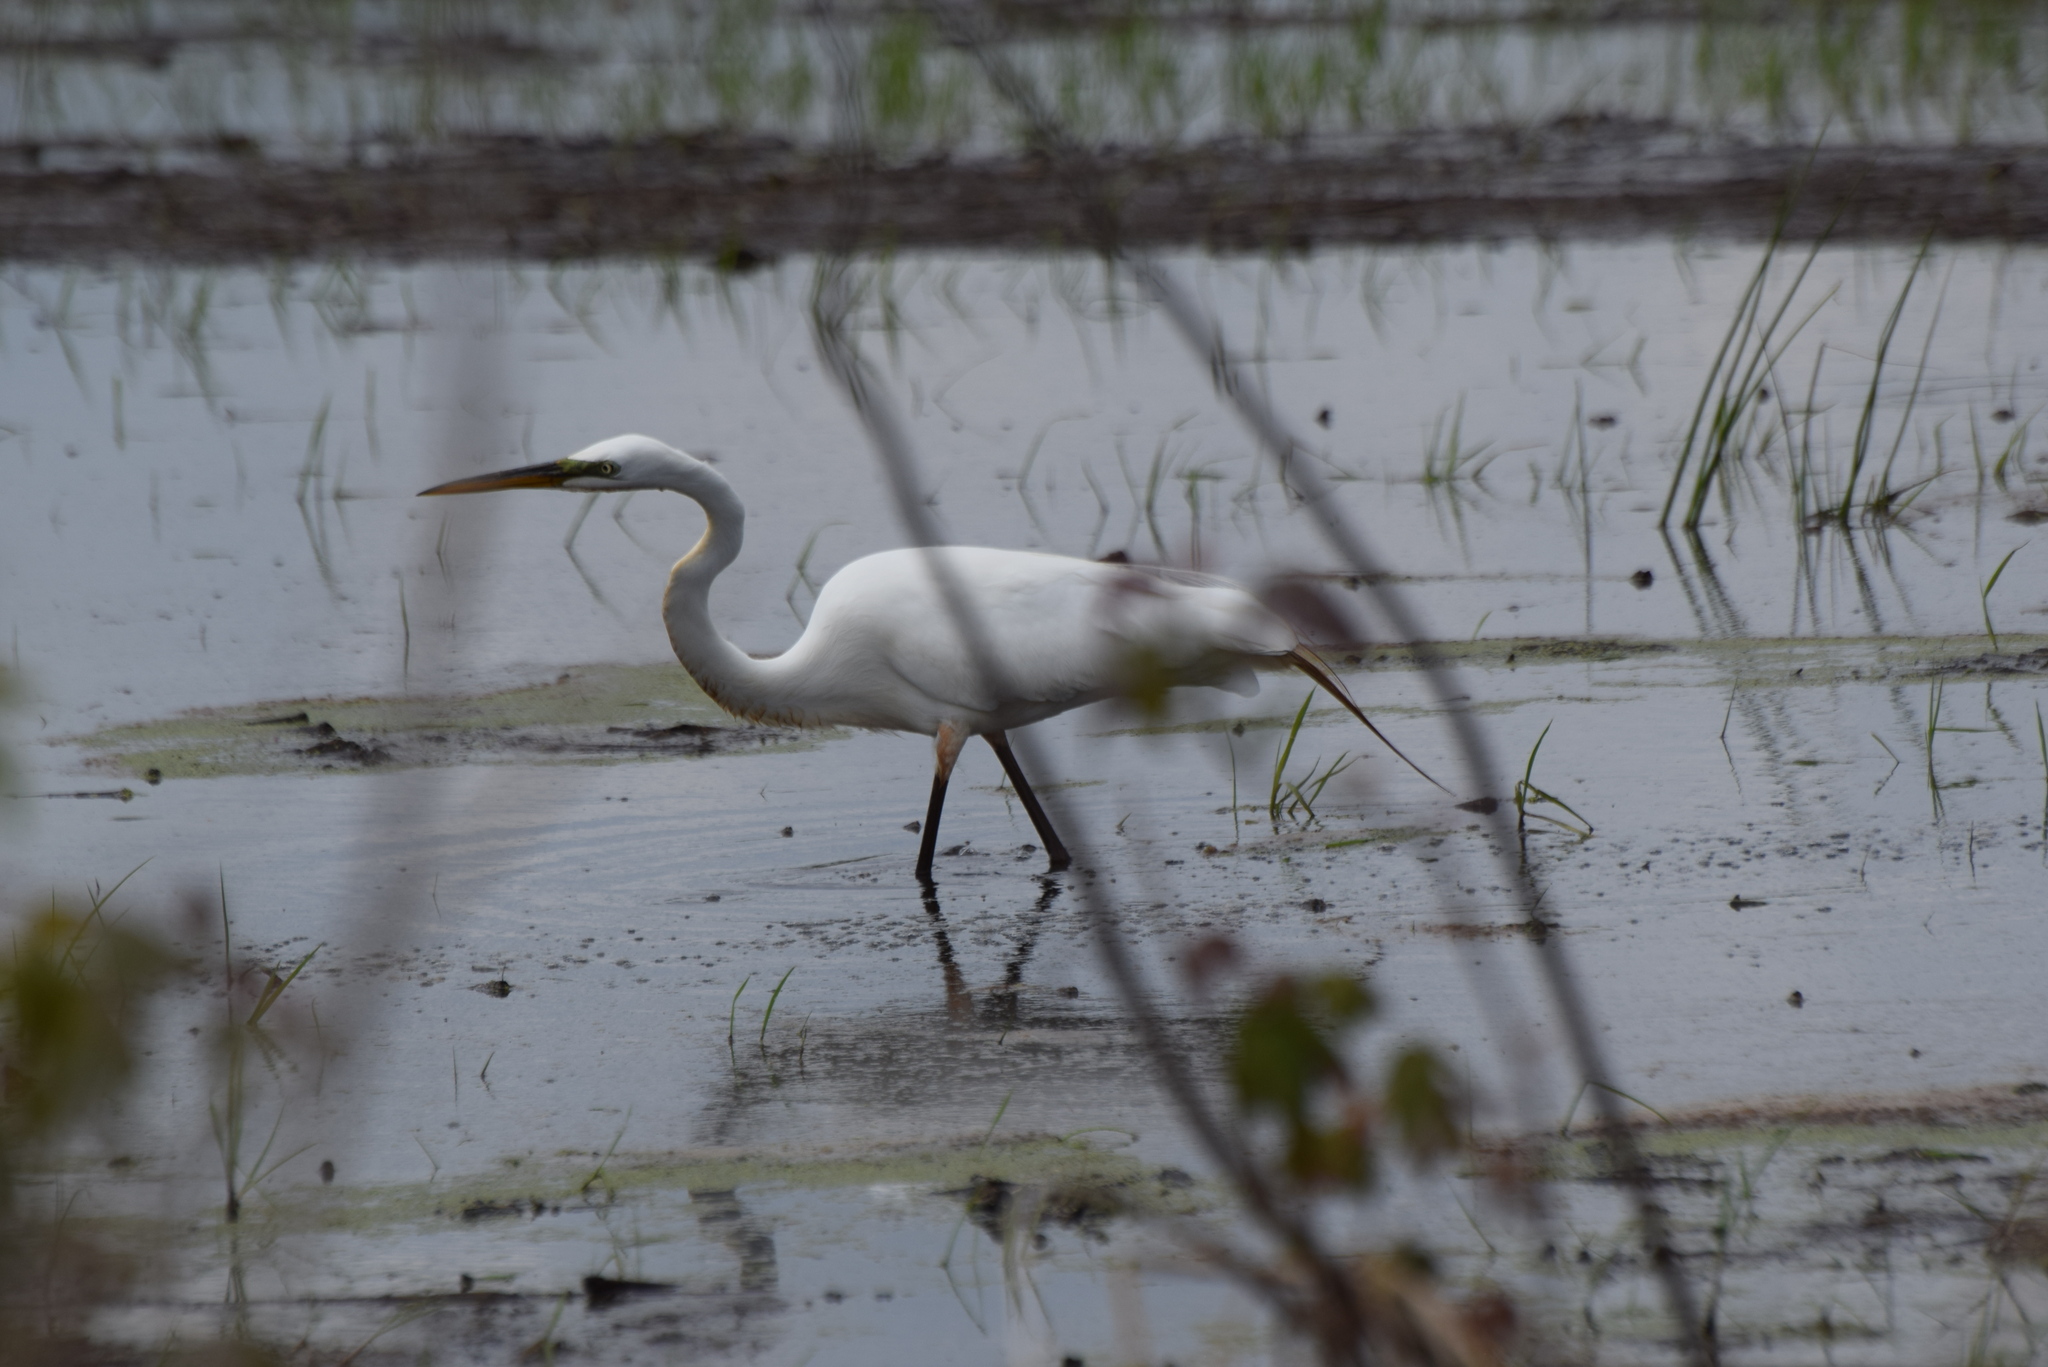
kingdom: Animalia
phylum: Chordata
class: Aves
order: Pelecaniformes
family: Ardeidae
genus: Ardea
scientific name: Ardea alba
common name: Great egret
